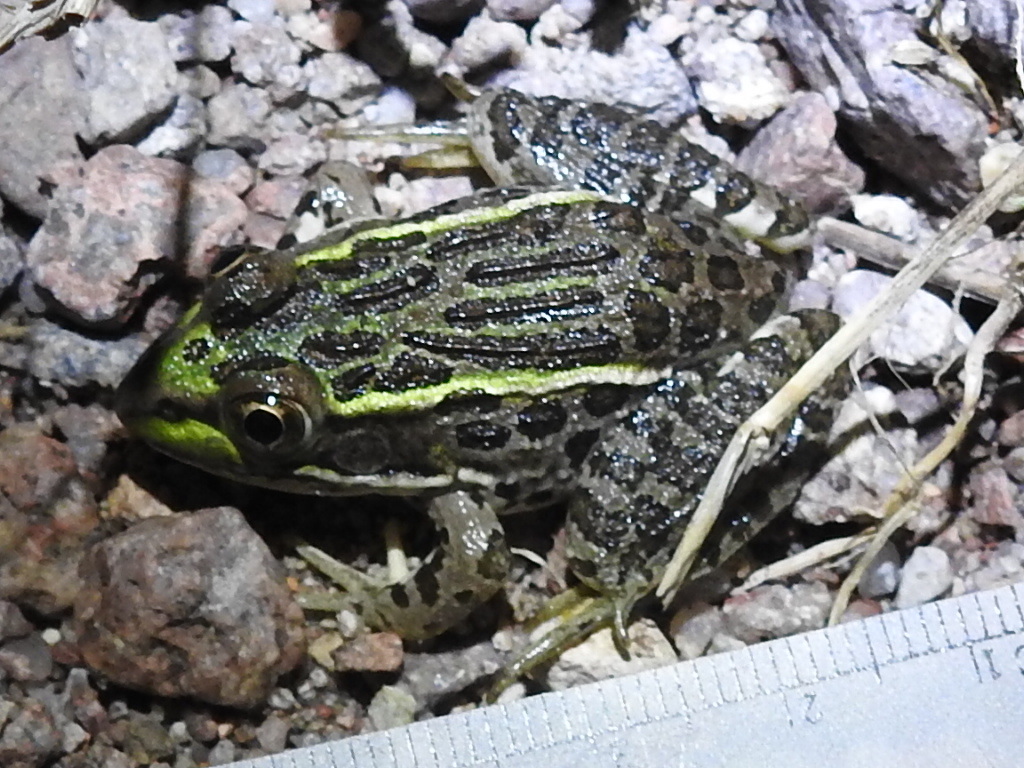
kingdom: Animalia
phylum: Chordata
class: Amphibia
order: Anura
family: Ranidae
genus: Lithobates
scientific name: Lithobates chiricahuensis
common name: Chiricahua leopard frog
